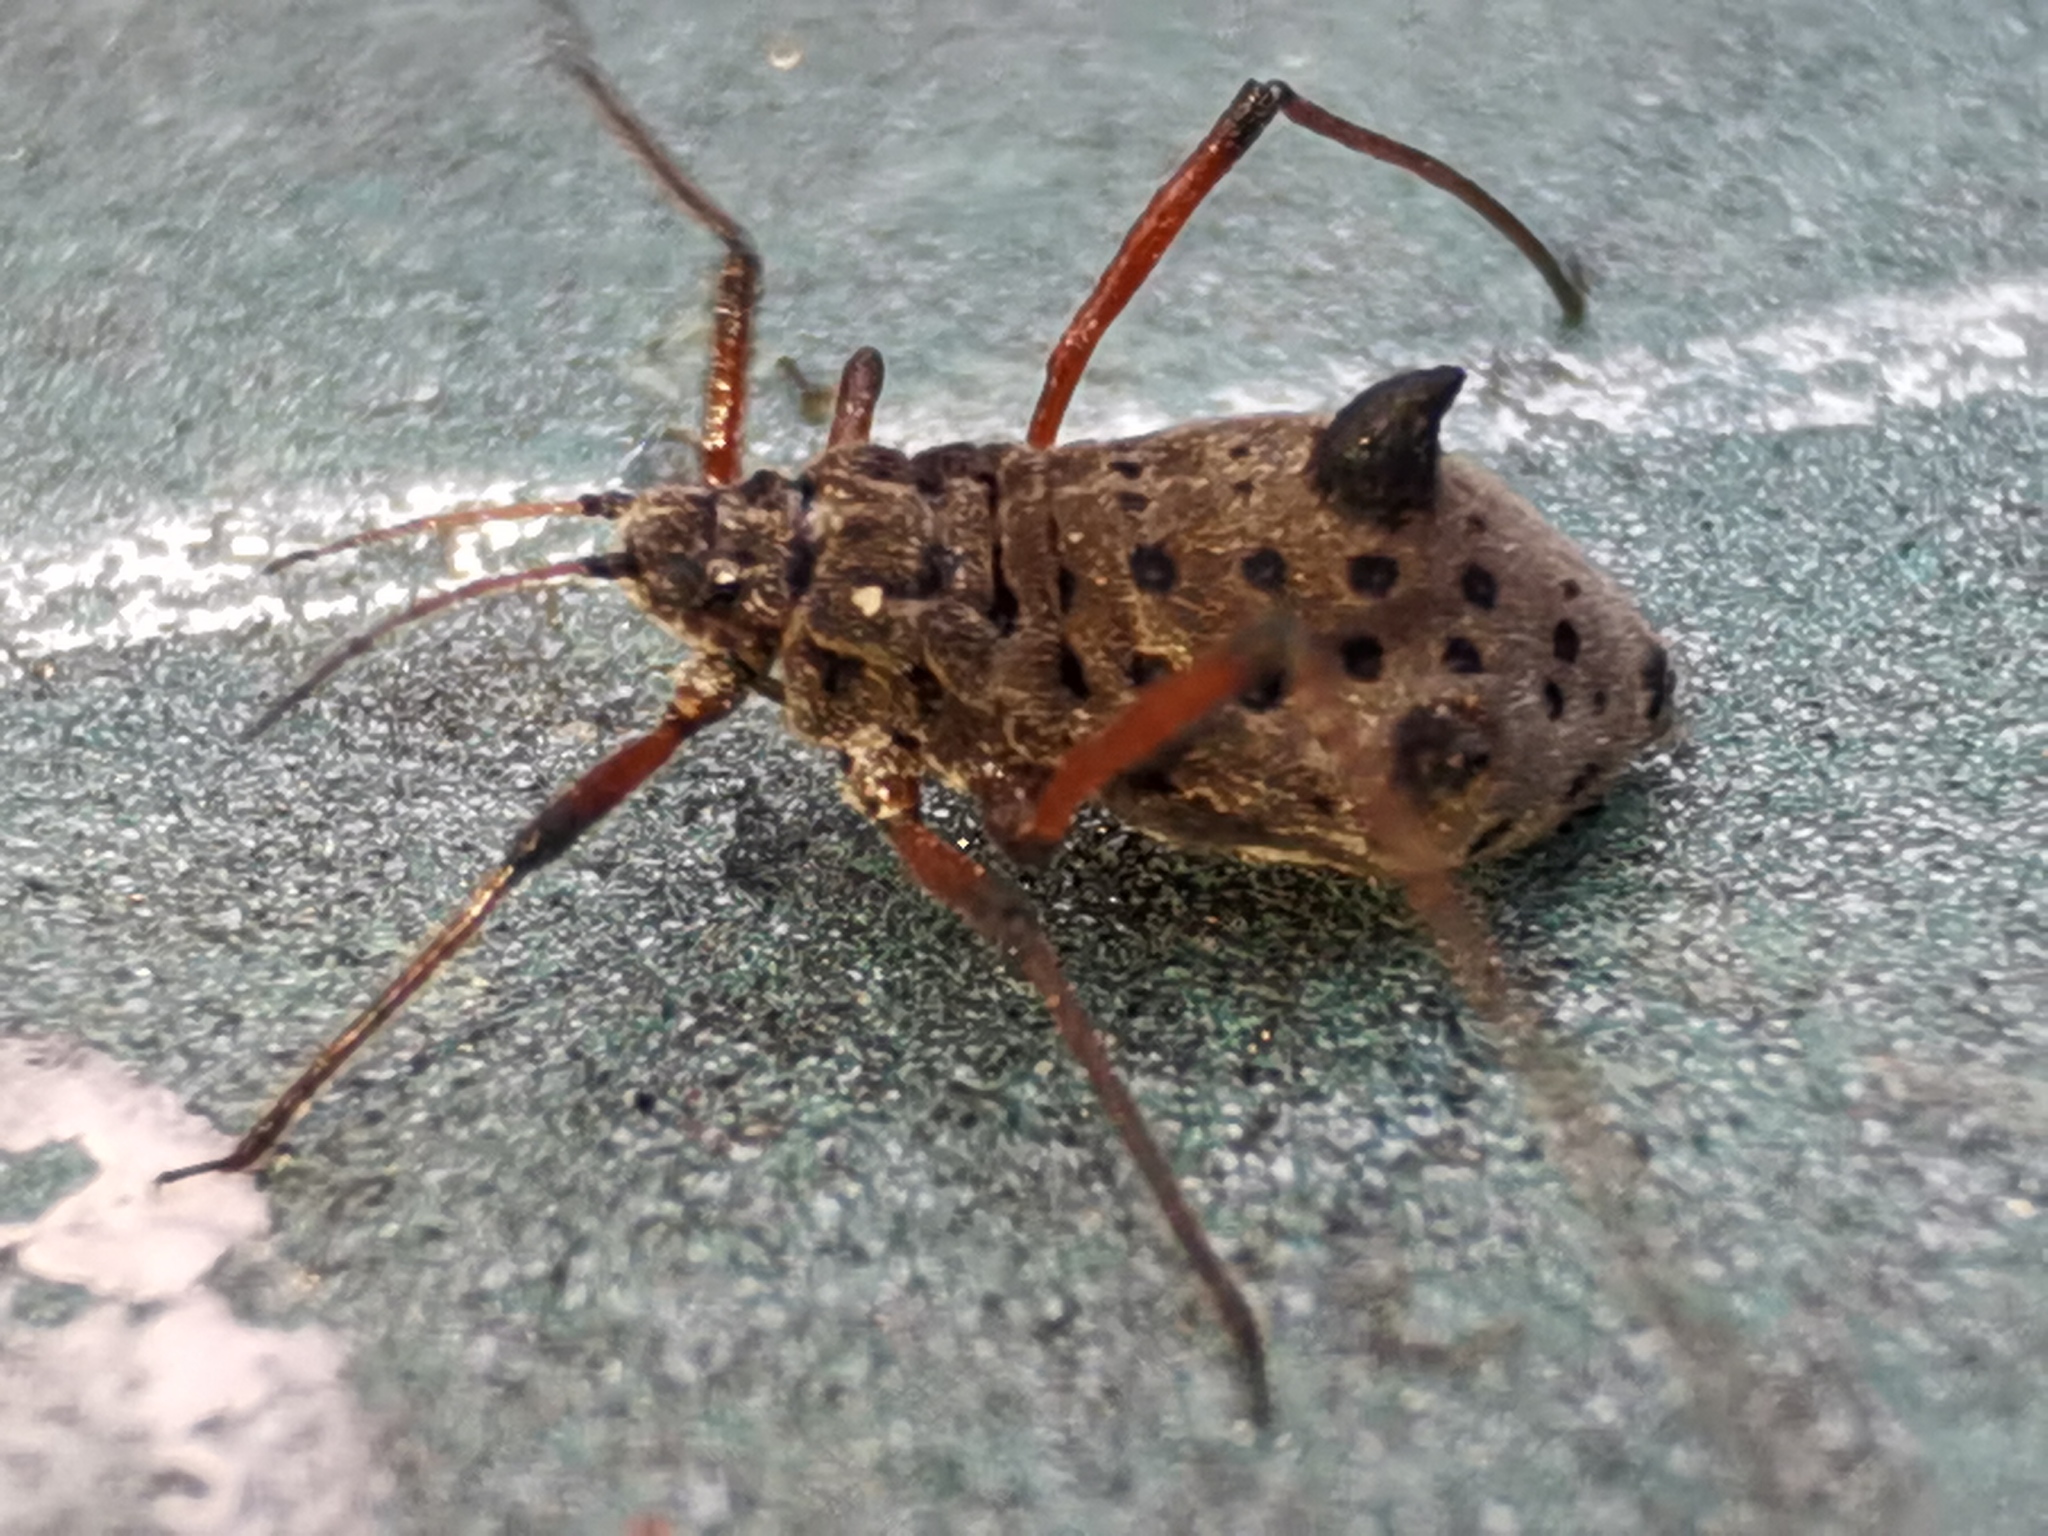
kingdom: Animalia
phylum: Arthropoda
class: Insecta
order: Hemiptera
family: Aphididae
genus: Tuberolachnus
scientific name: Tuberolachnus salignus
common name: Giant willow aphid
